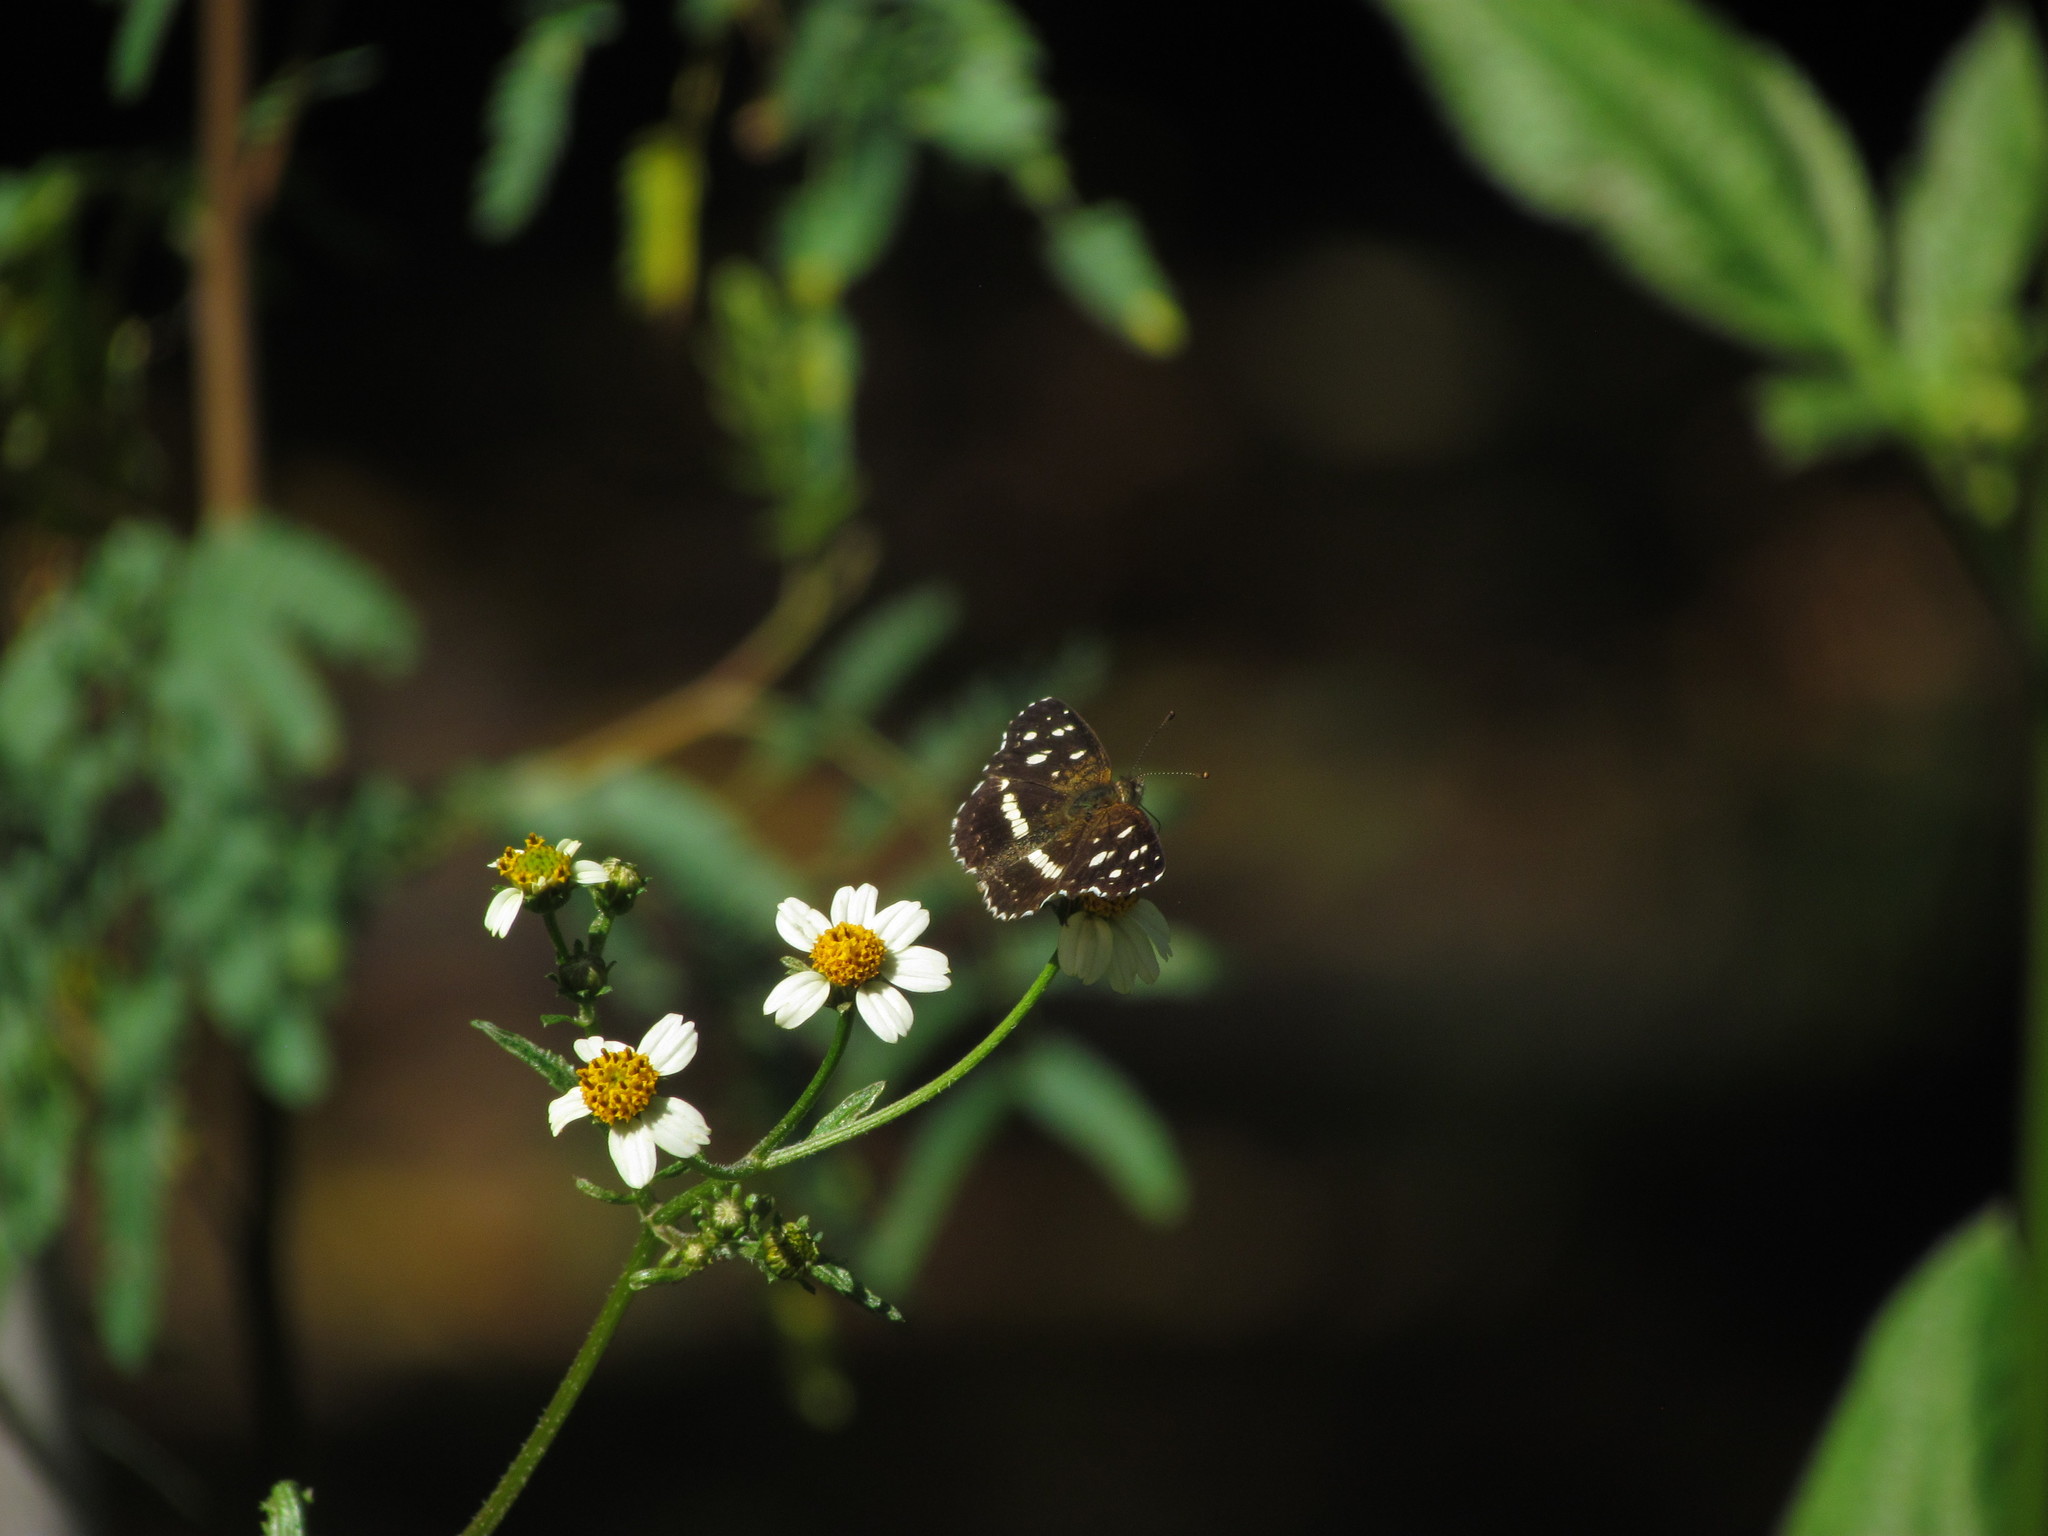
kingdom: Animalia
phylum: Arthropoda
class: Insecta
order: Lepidoptera
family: Nymphalidae
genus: Ortilia
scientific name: Ortilia ithra
